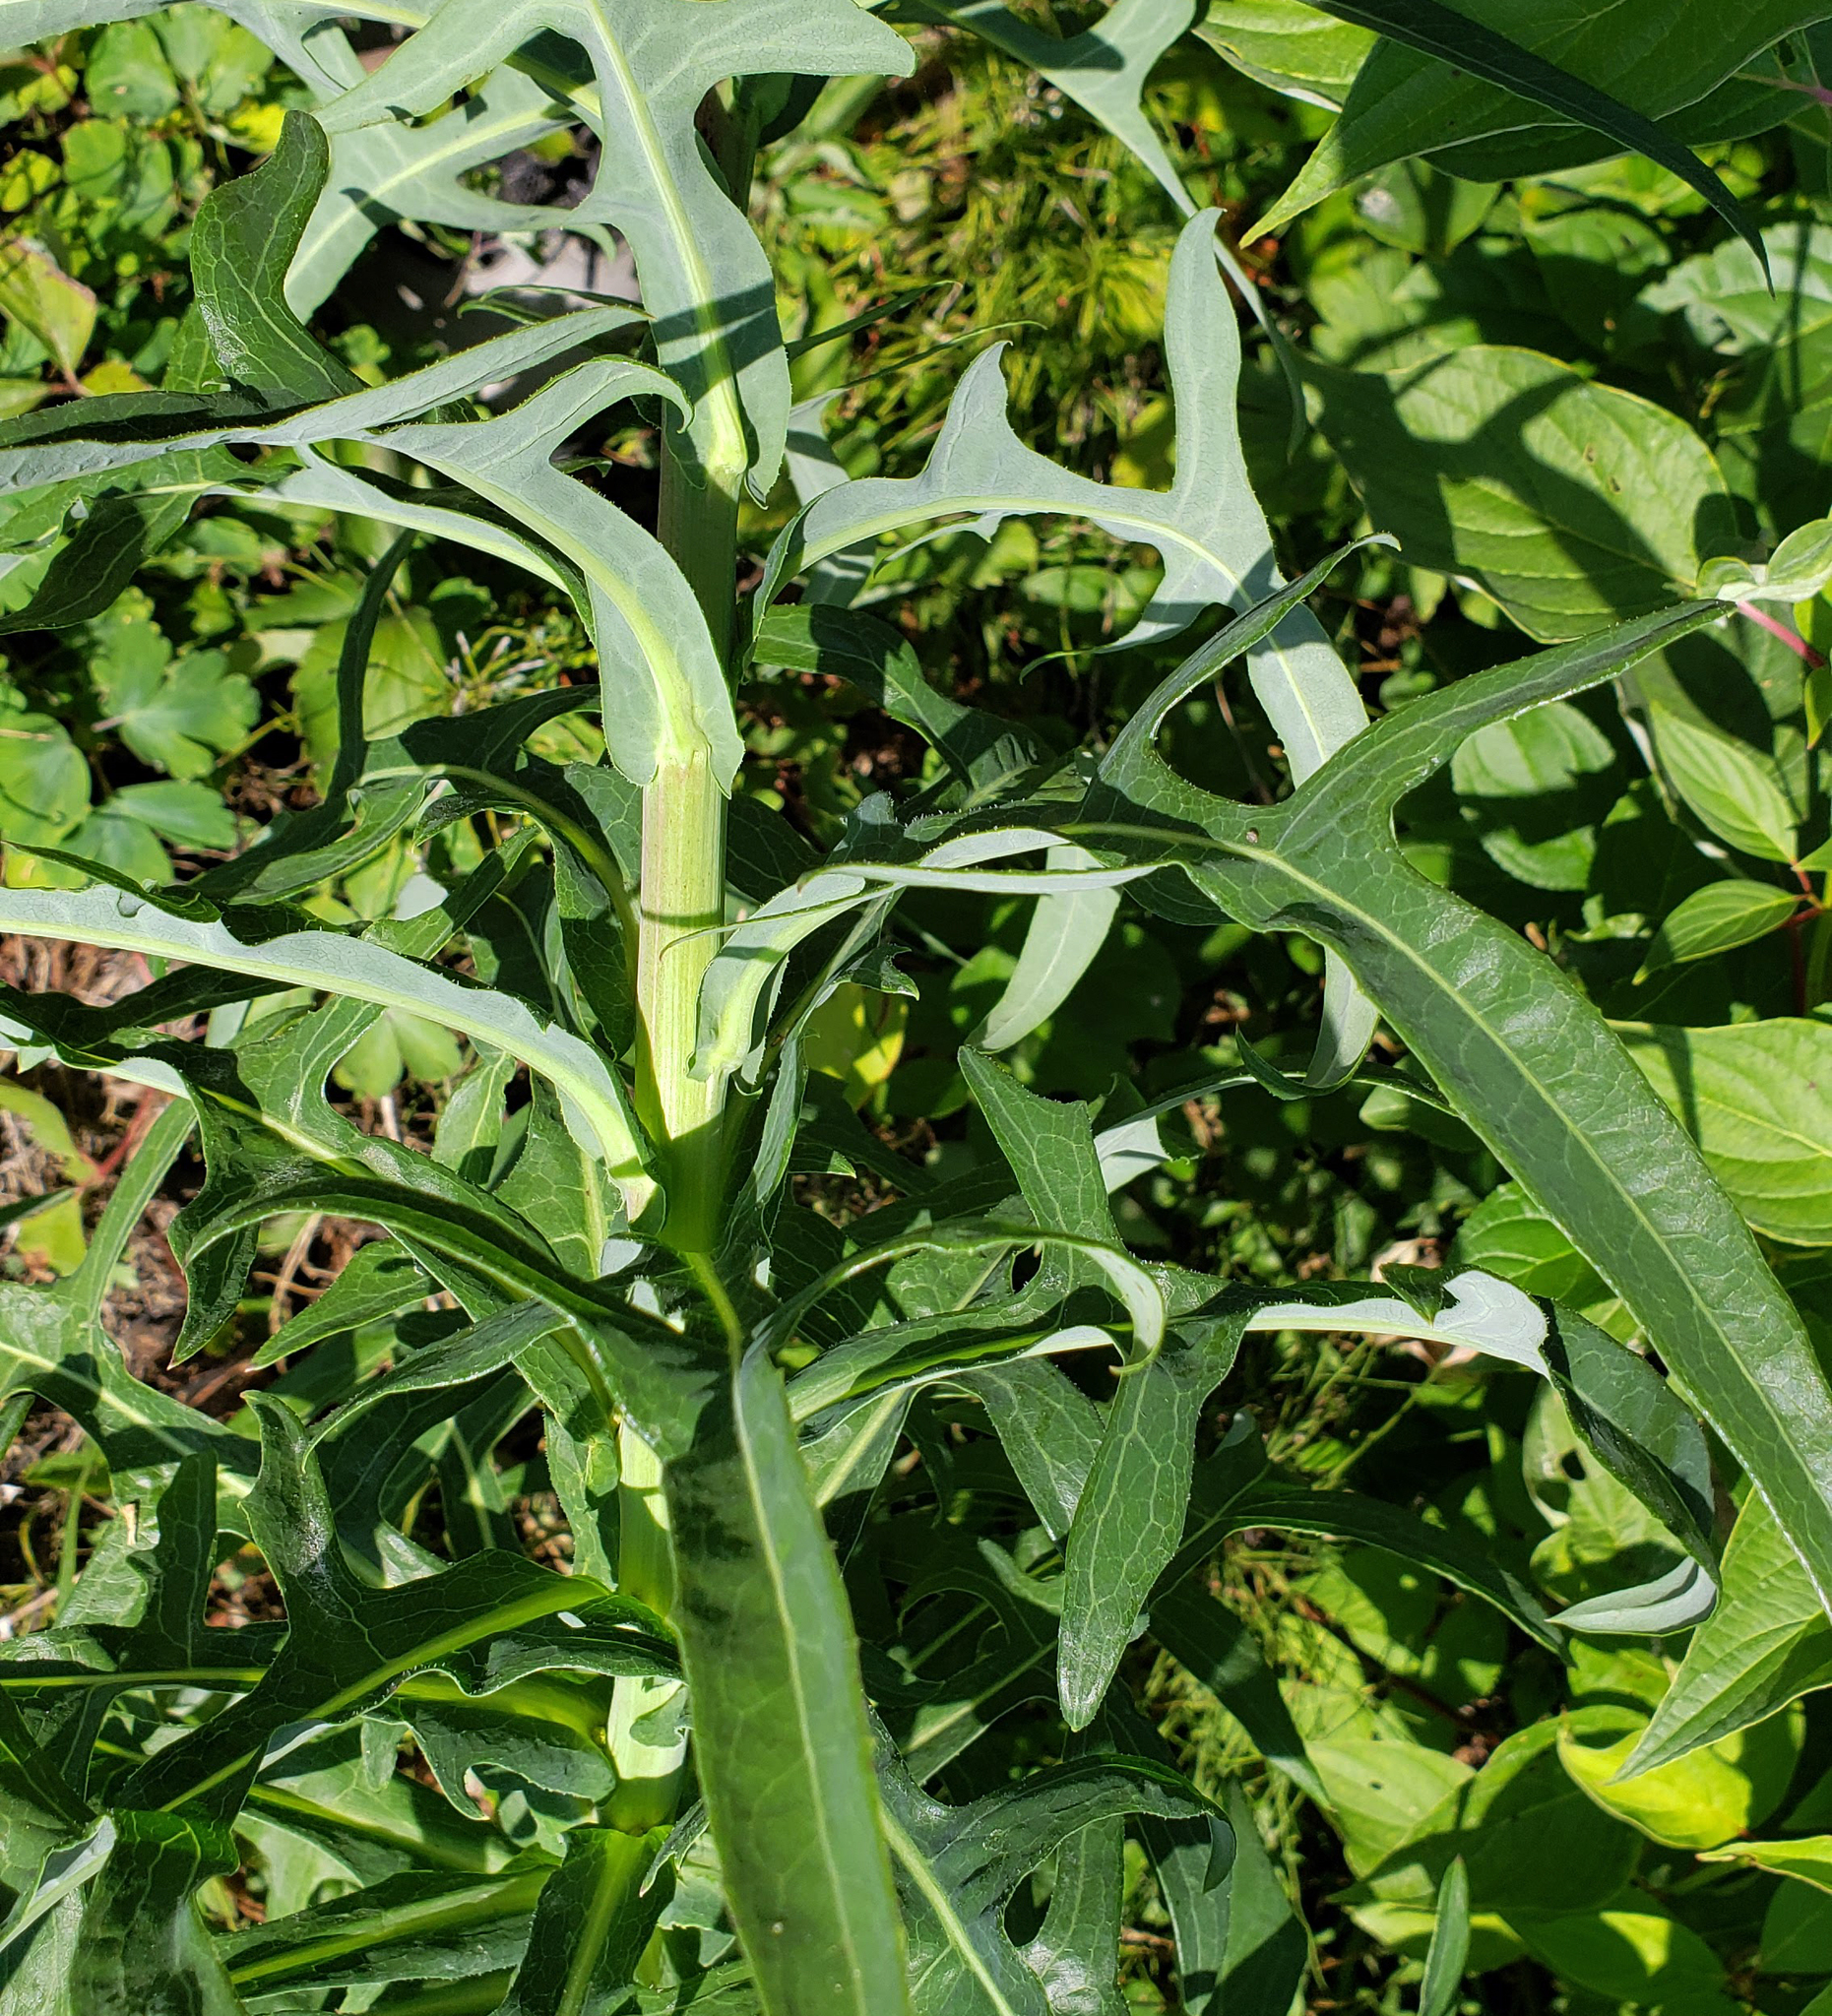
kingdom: Plantae
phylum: Tracheophyta
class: Magnoliopsida
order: Asterales
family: Asteraceae
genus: Lactuca
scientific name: Lactuca canadensis
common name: Canada lettuce
